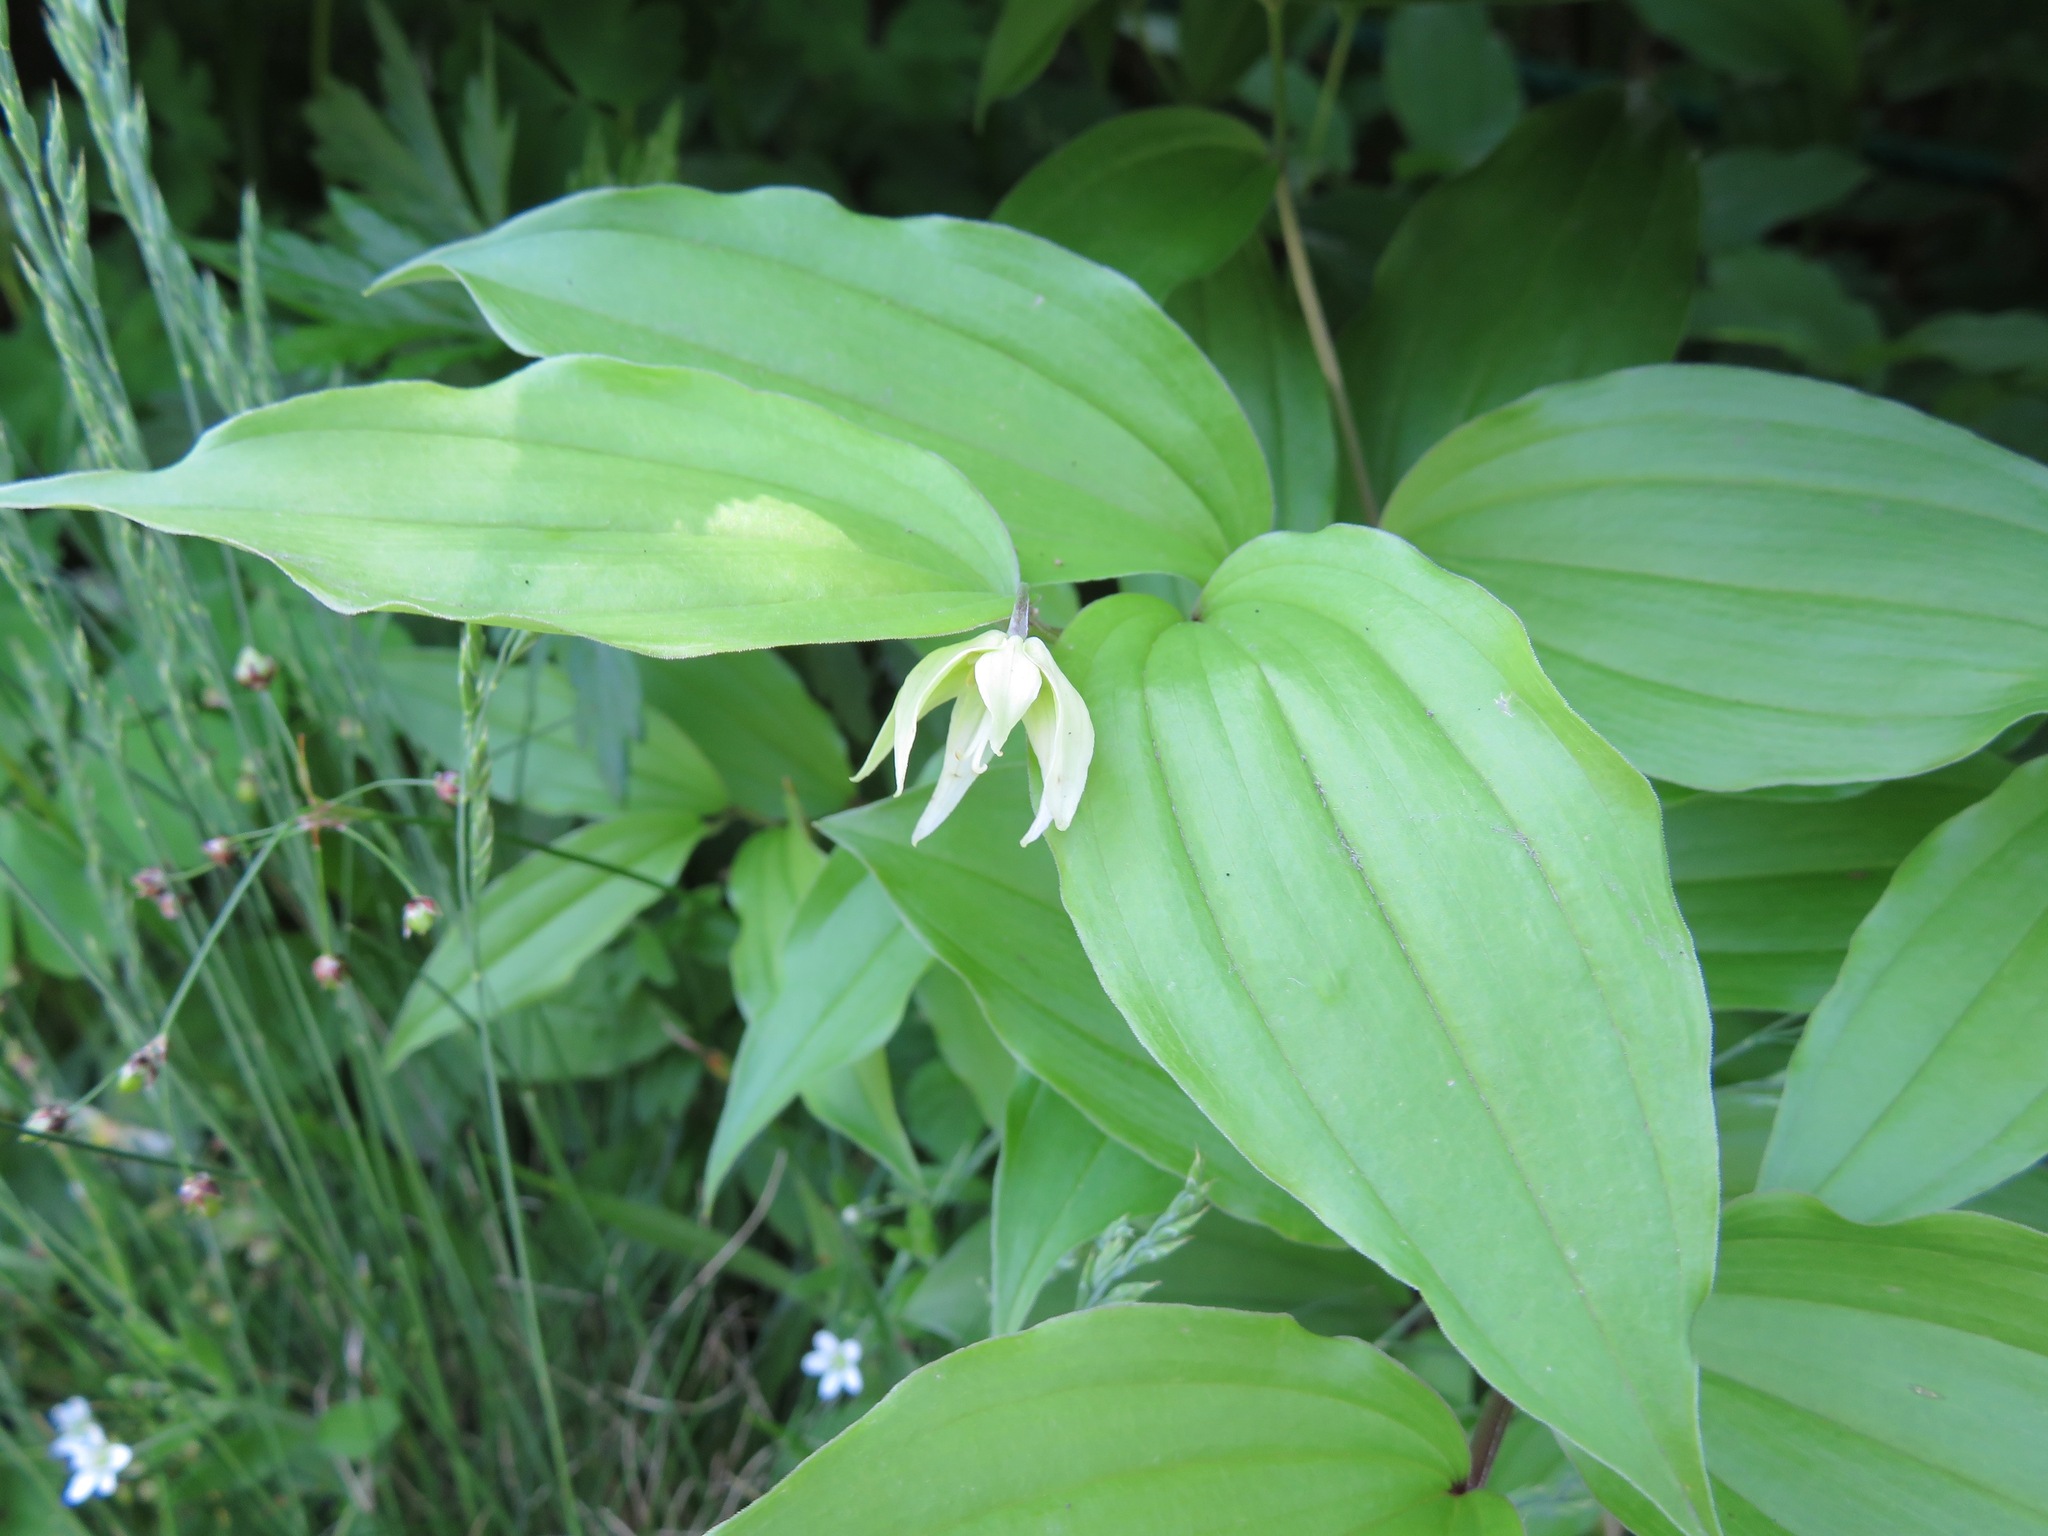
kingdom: Plantae
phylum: Tracheophyta
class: Liliopsida
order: Liliales
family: Colchicaceae
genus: Disporum
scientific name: Disporum smilacinum
